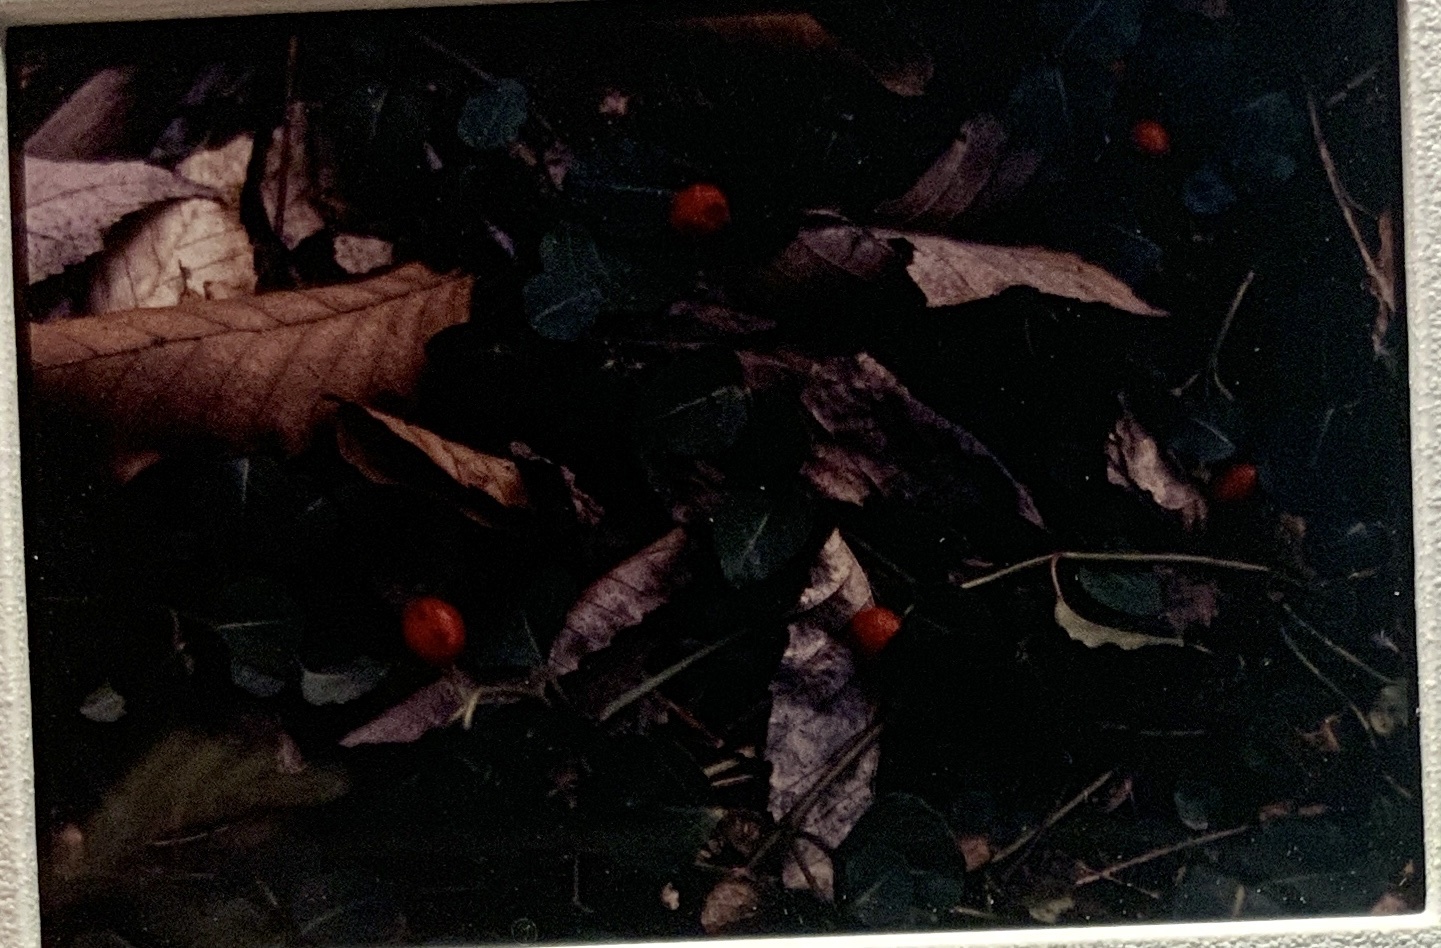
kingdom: Plantae
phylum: Tracheophyta
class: Magnoliopsida
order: Gentianales
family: Rubiaceae
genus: Mitchella
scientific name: Mitchella repens
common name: Partridge-berry
